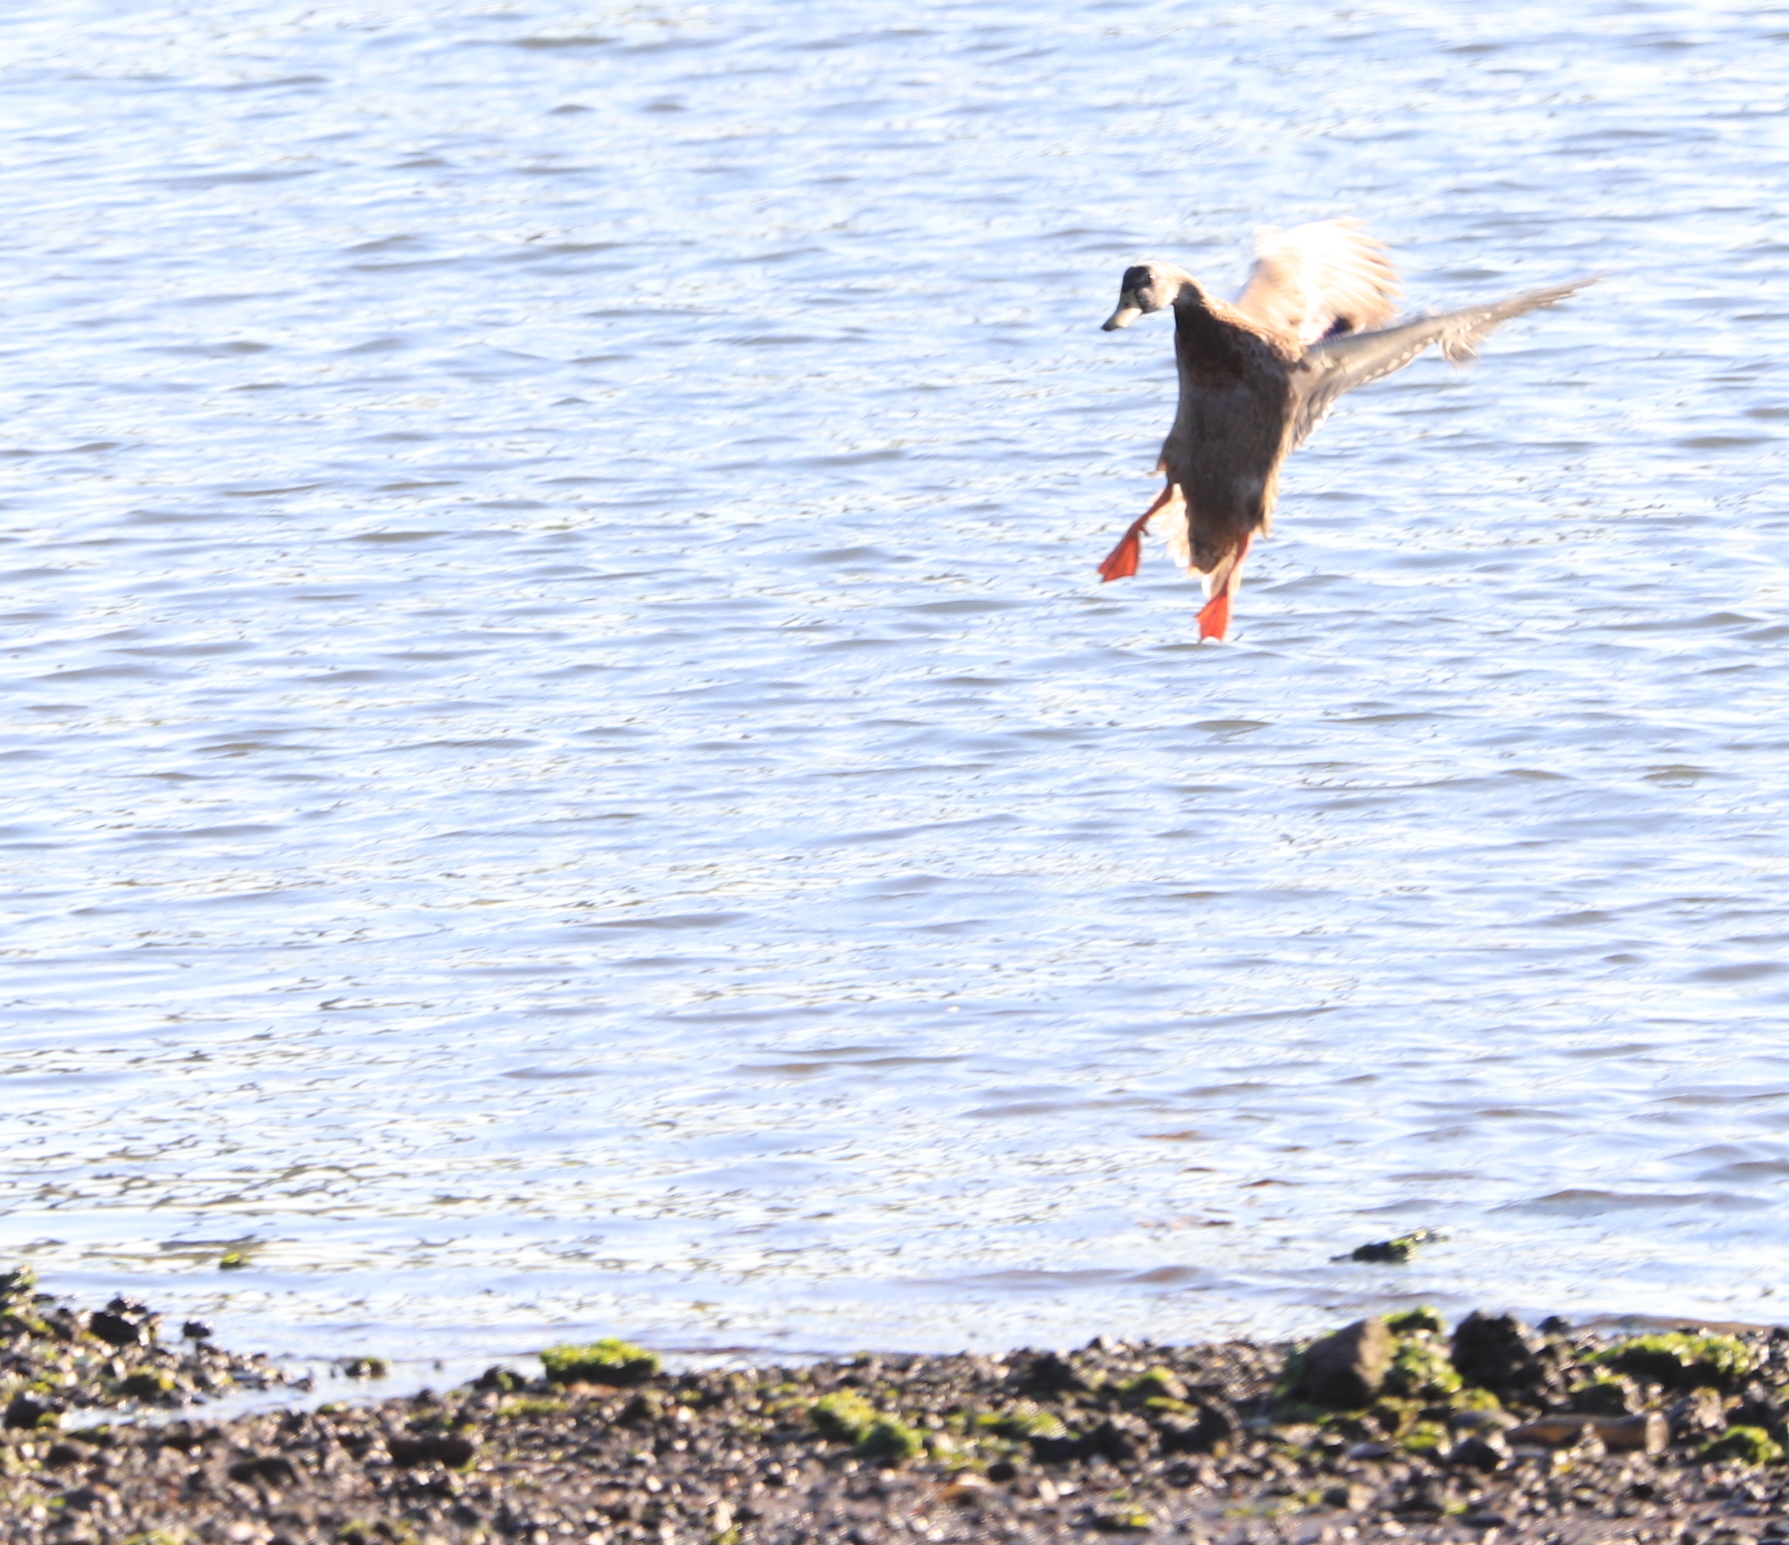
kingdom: Animalia
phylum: Chordata
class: Aves
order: Anseriformes
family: Anatidae
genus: Anas
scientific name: Anas platyrhynchos
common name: Mallard
